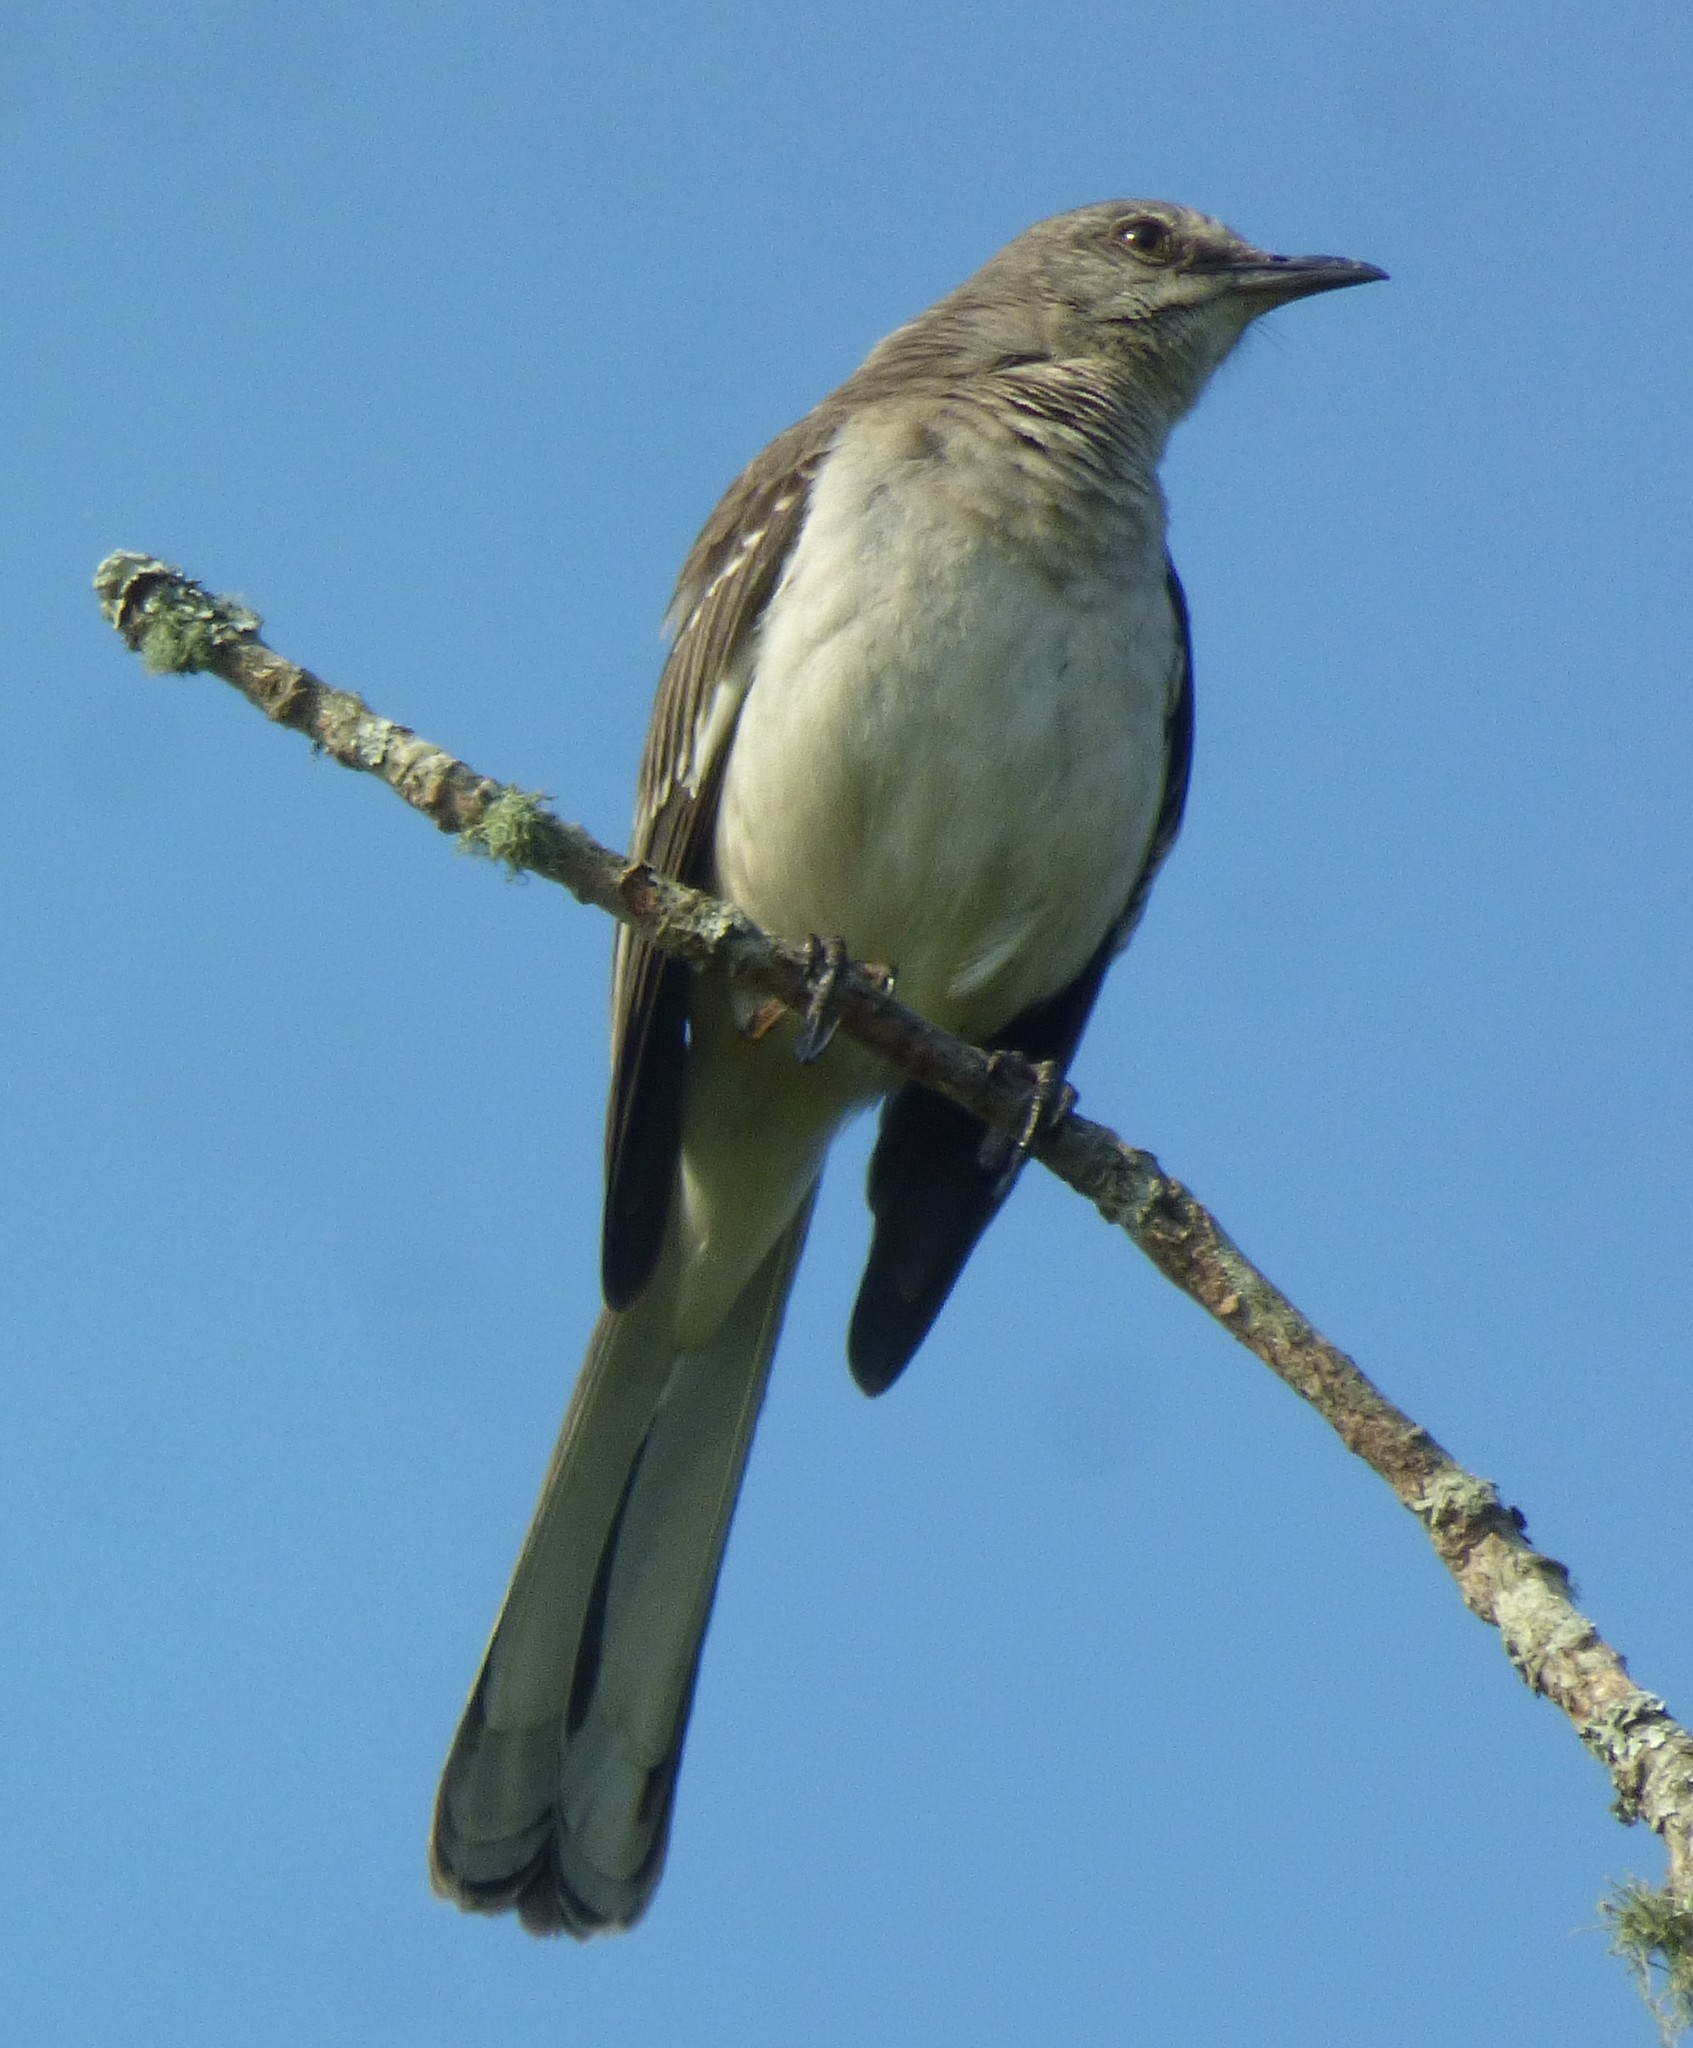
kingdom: Animalia
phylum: Chordata
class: Aves
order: Passeriformes
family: Mimidae
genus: Mimus
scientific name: Mimus polyglottos
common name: Northern mockingbird
